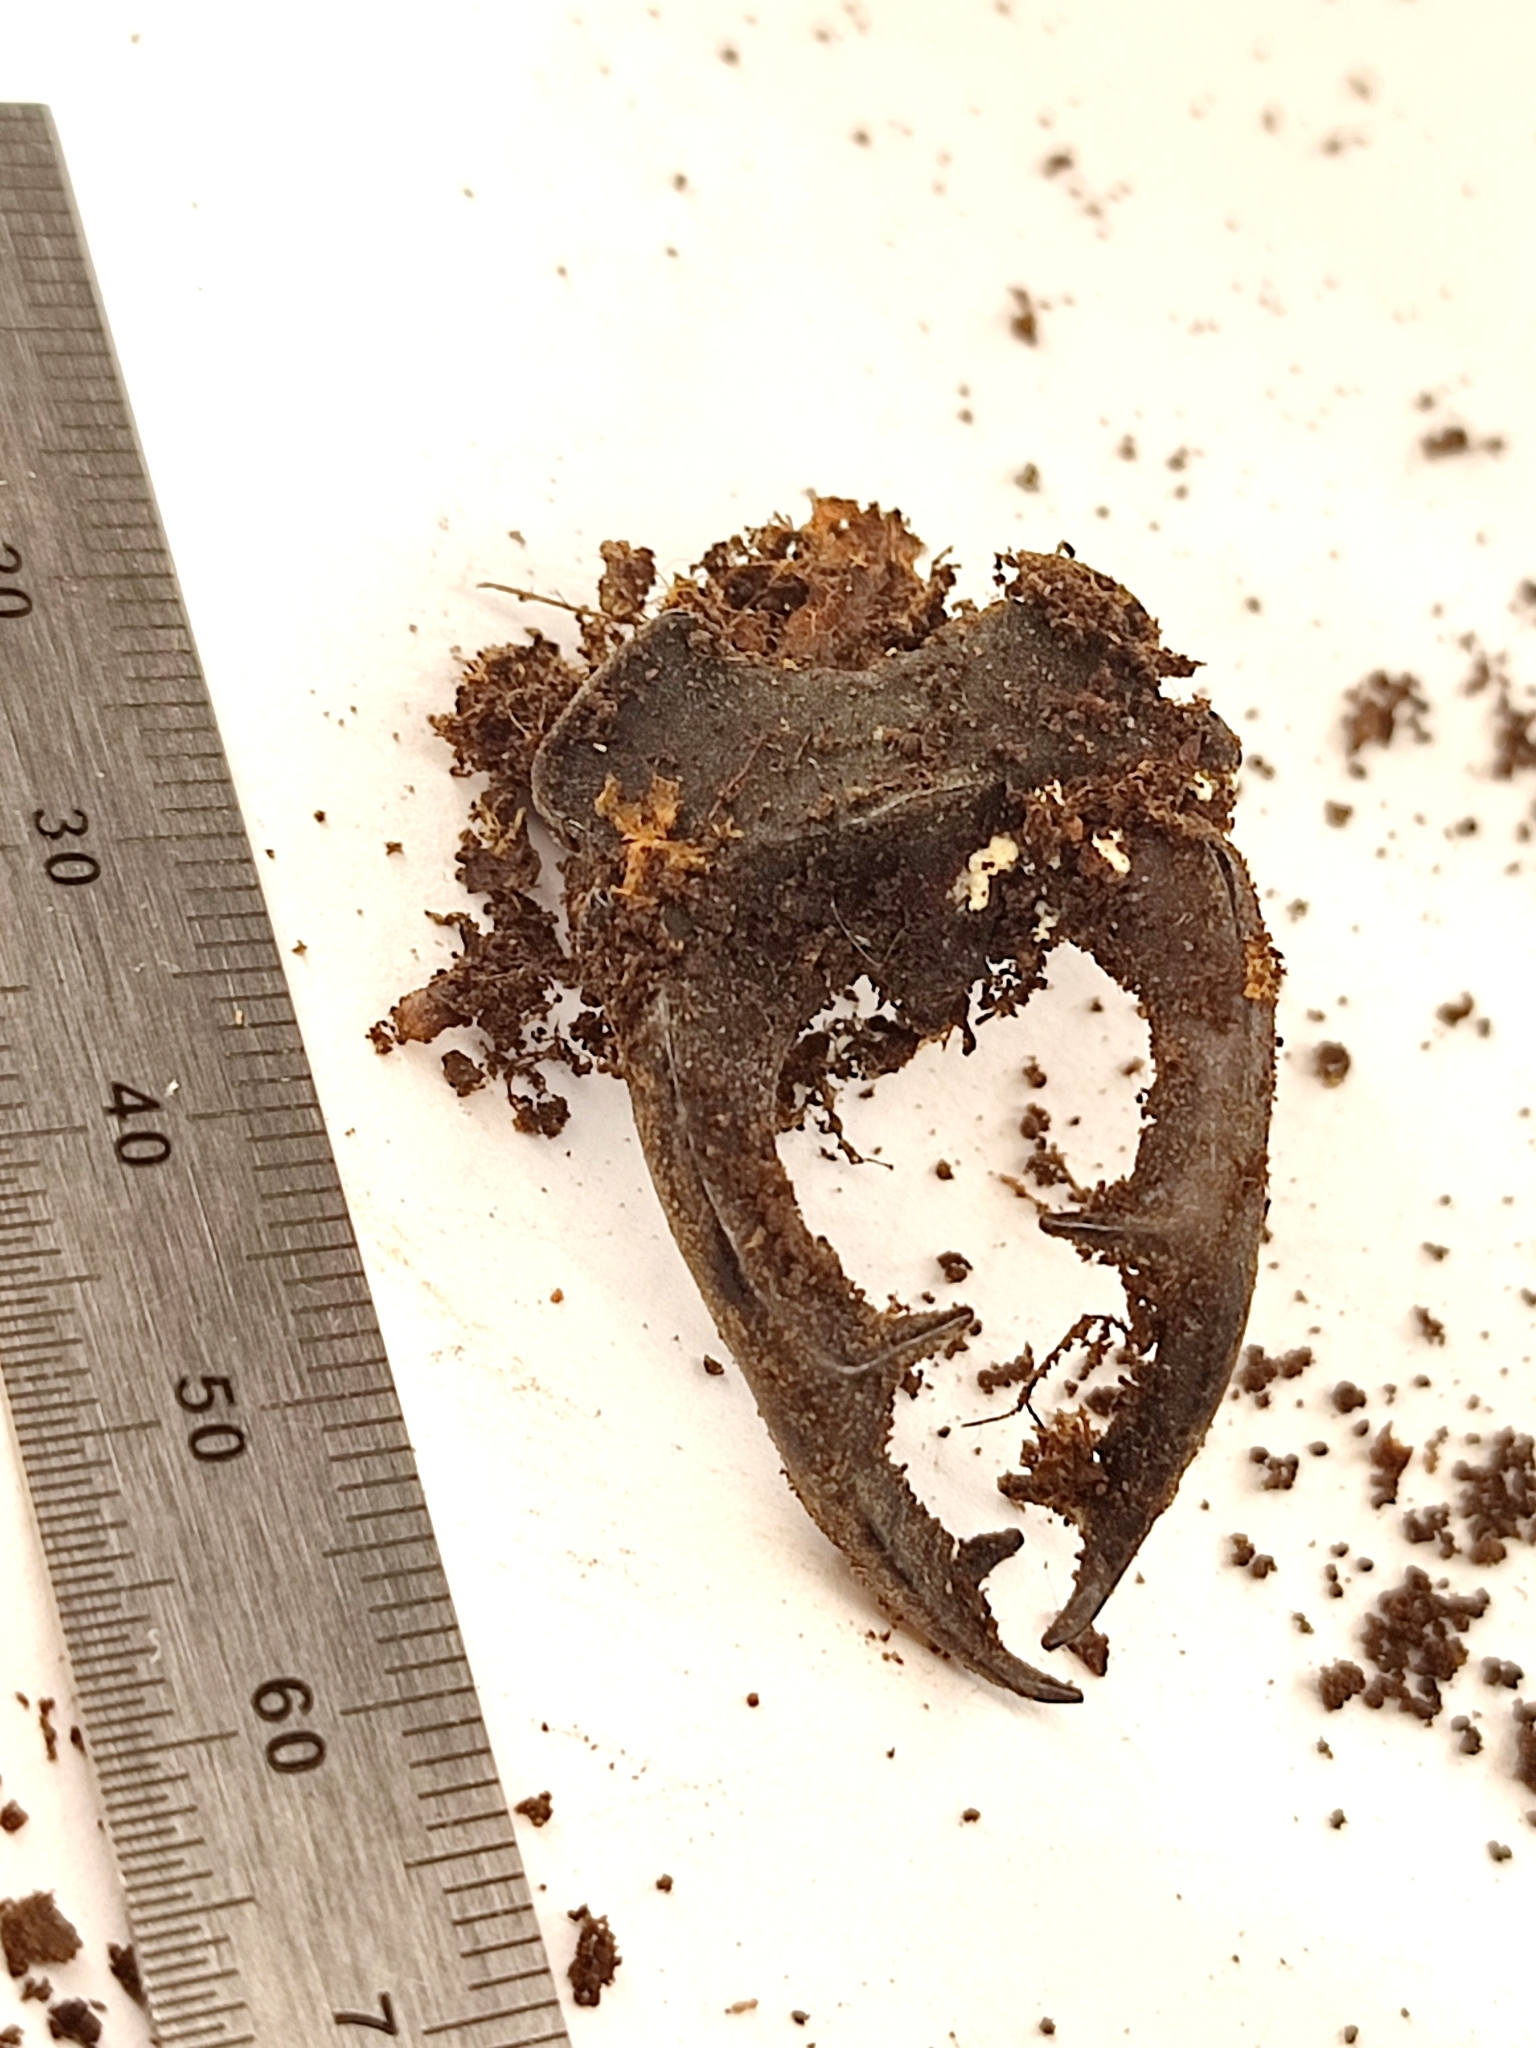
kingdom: Animalia
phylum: Arthropoda
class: Insecta
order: Coleoptera
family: Lucanidae
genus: Lucanus
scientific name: Lucanus cervus
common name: Stag beetle
